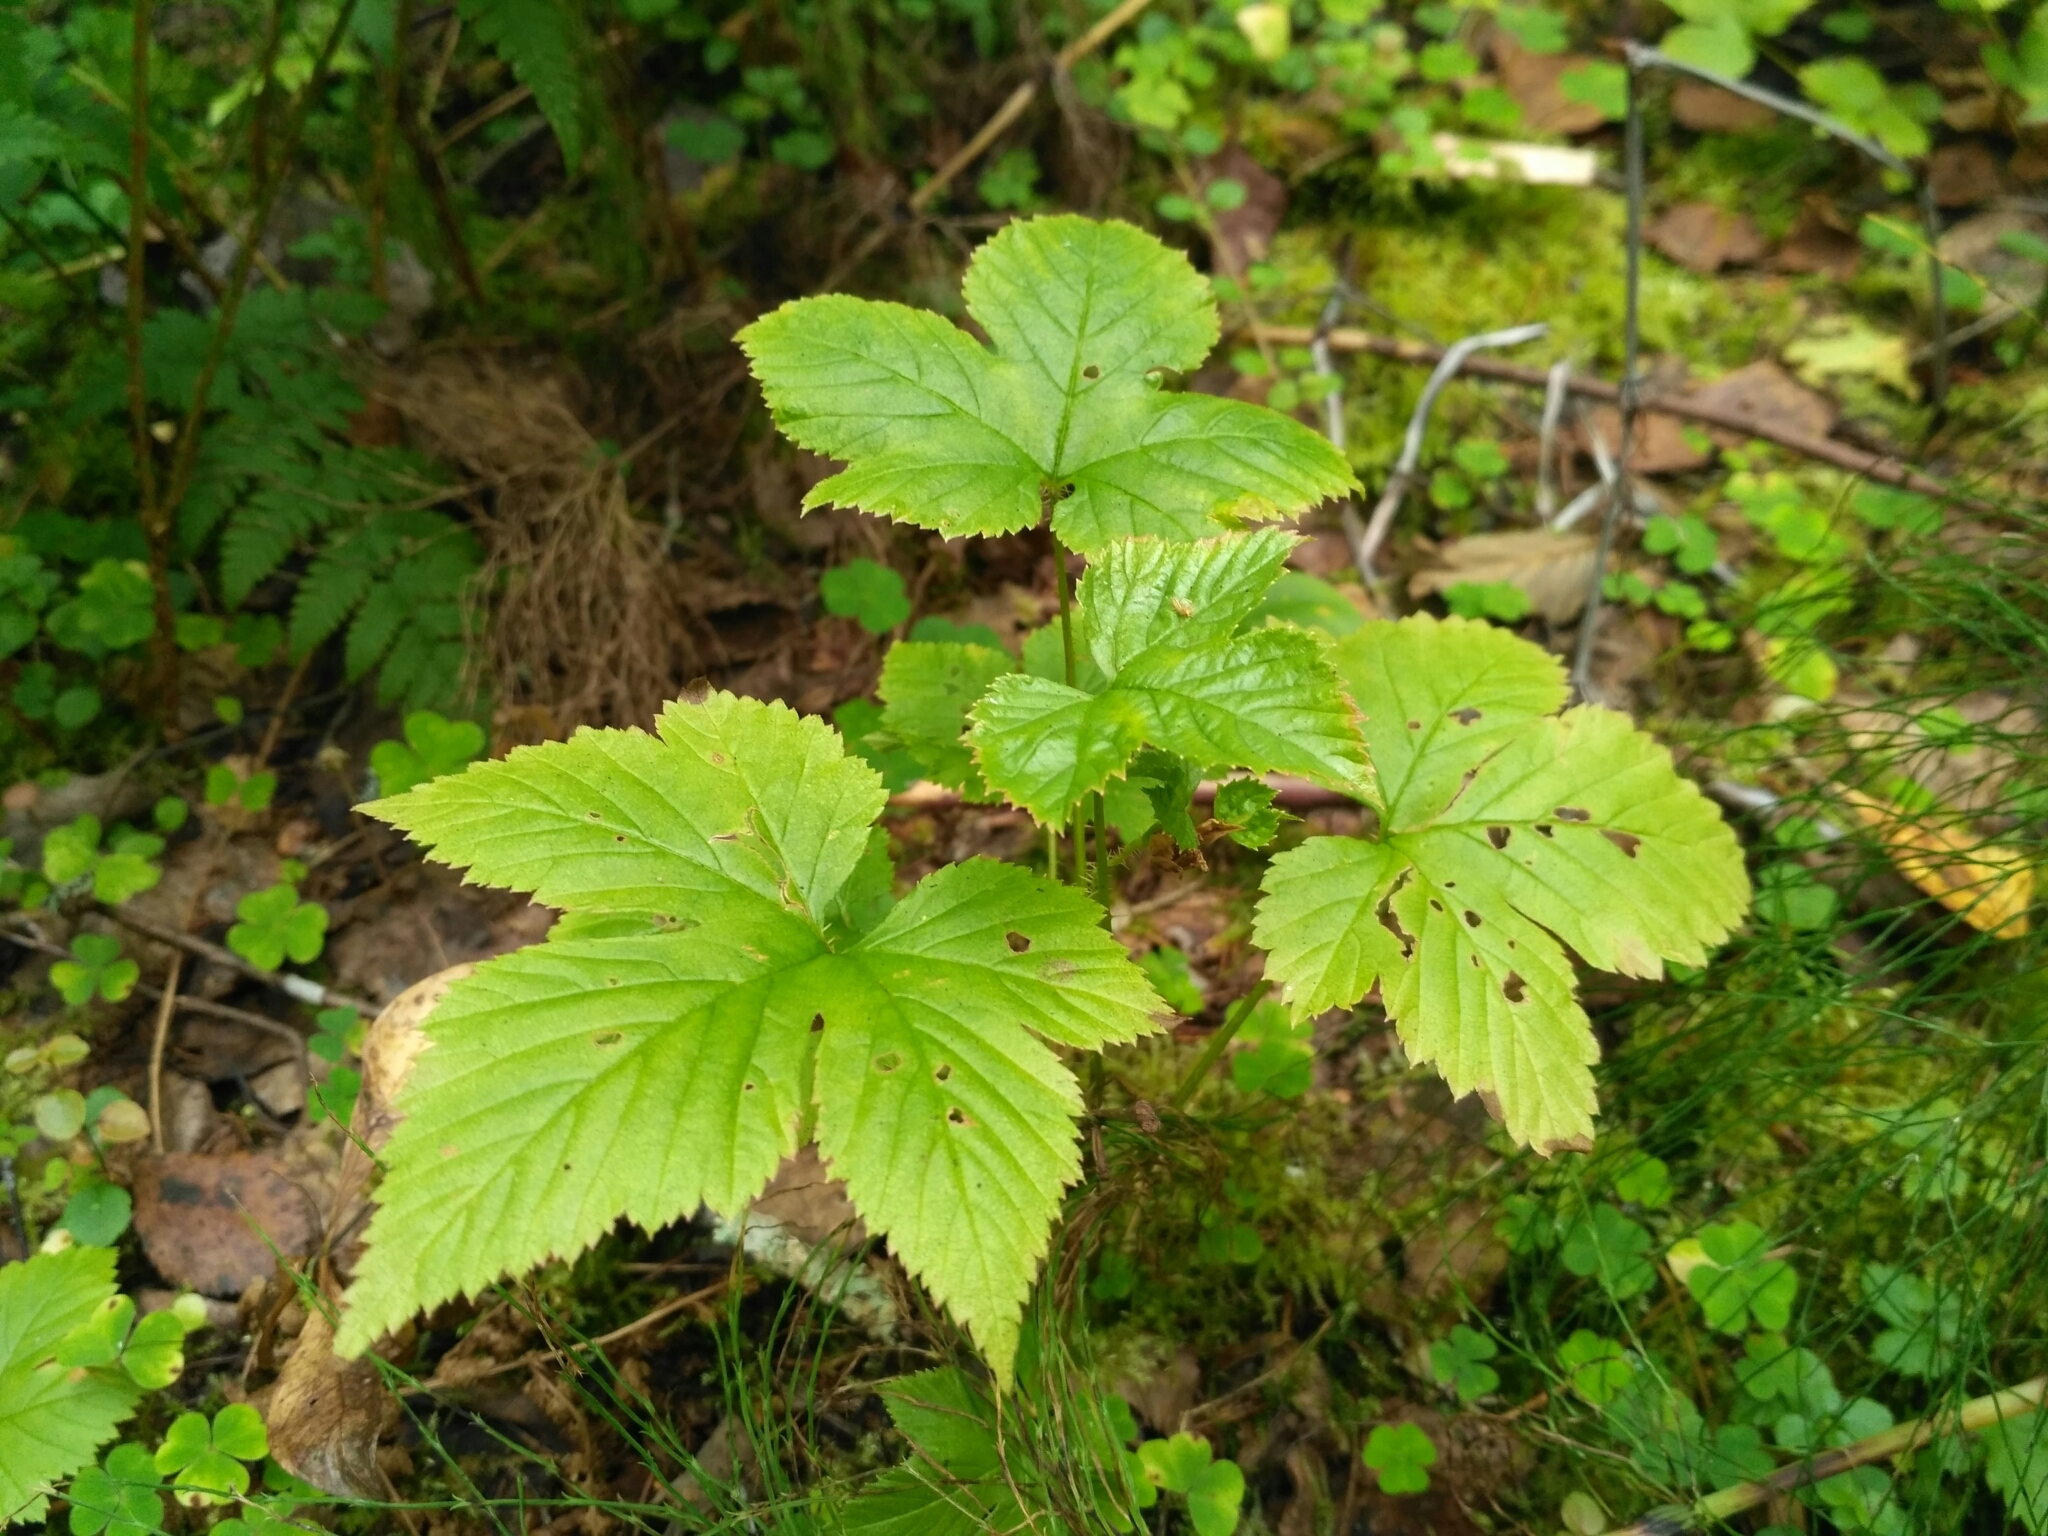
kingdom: Plantae
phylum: Tracheophyta
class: Magnoliopsida
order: Rosales
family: Rosaceae
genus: Rubus
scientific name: Rubus humulifolius
